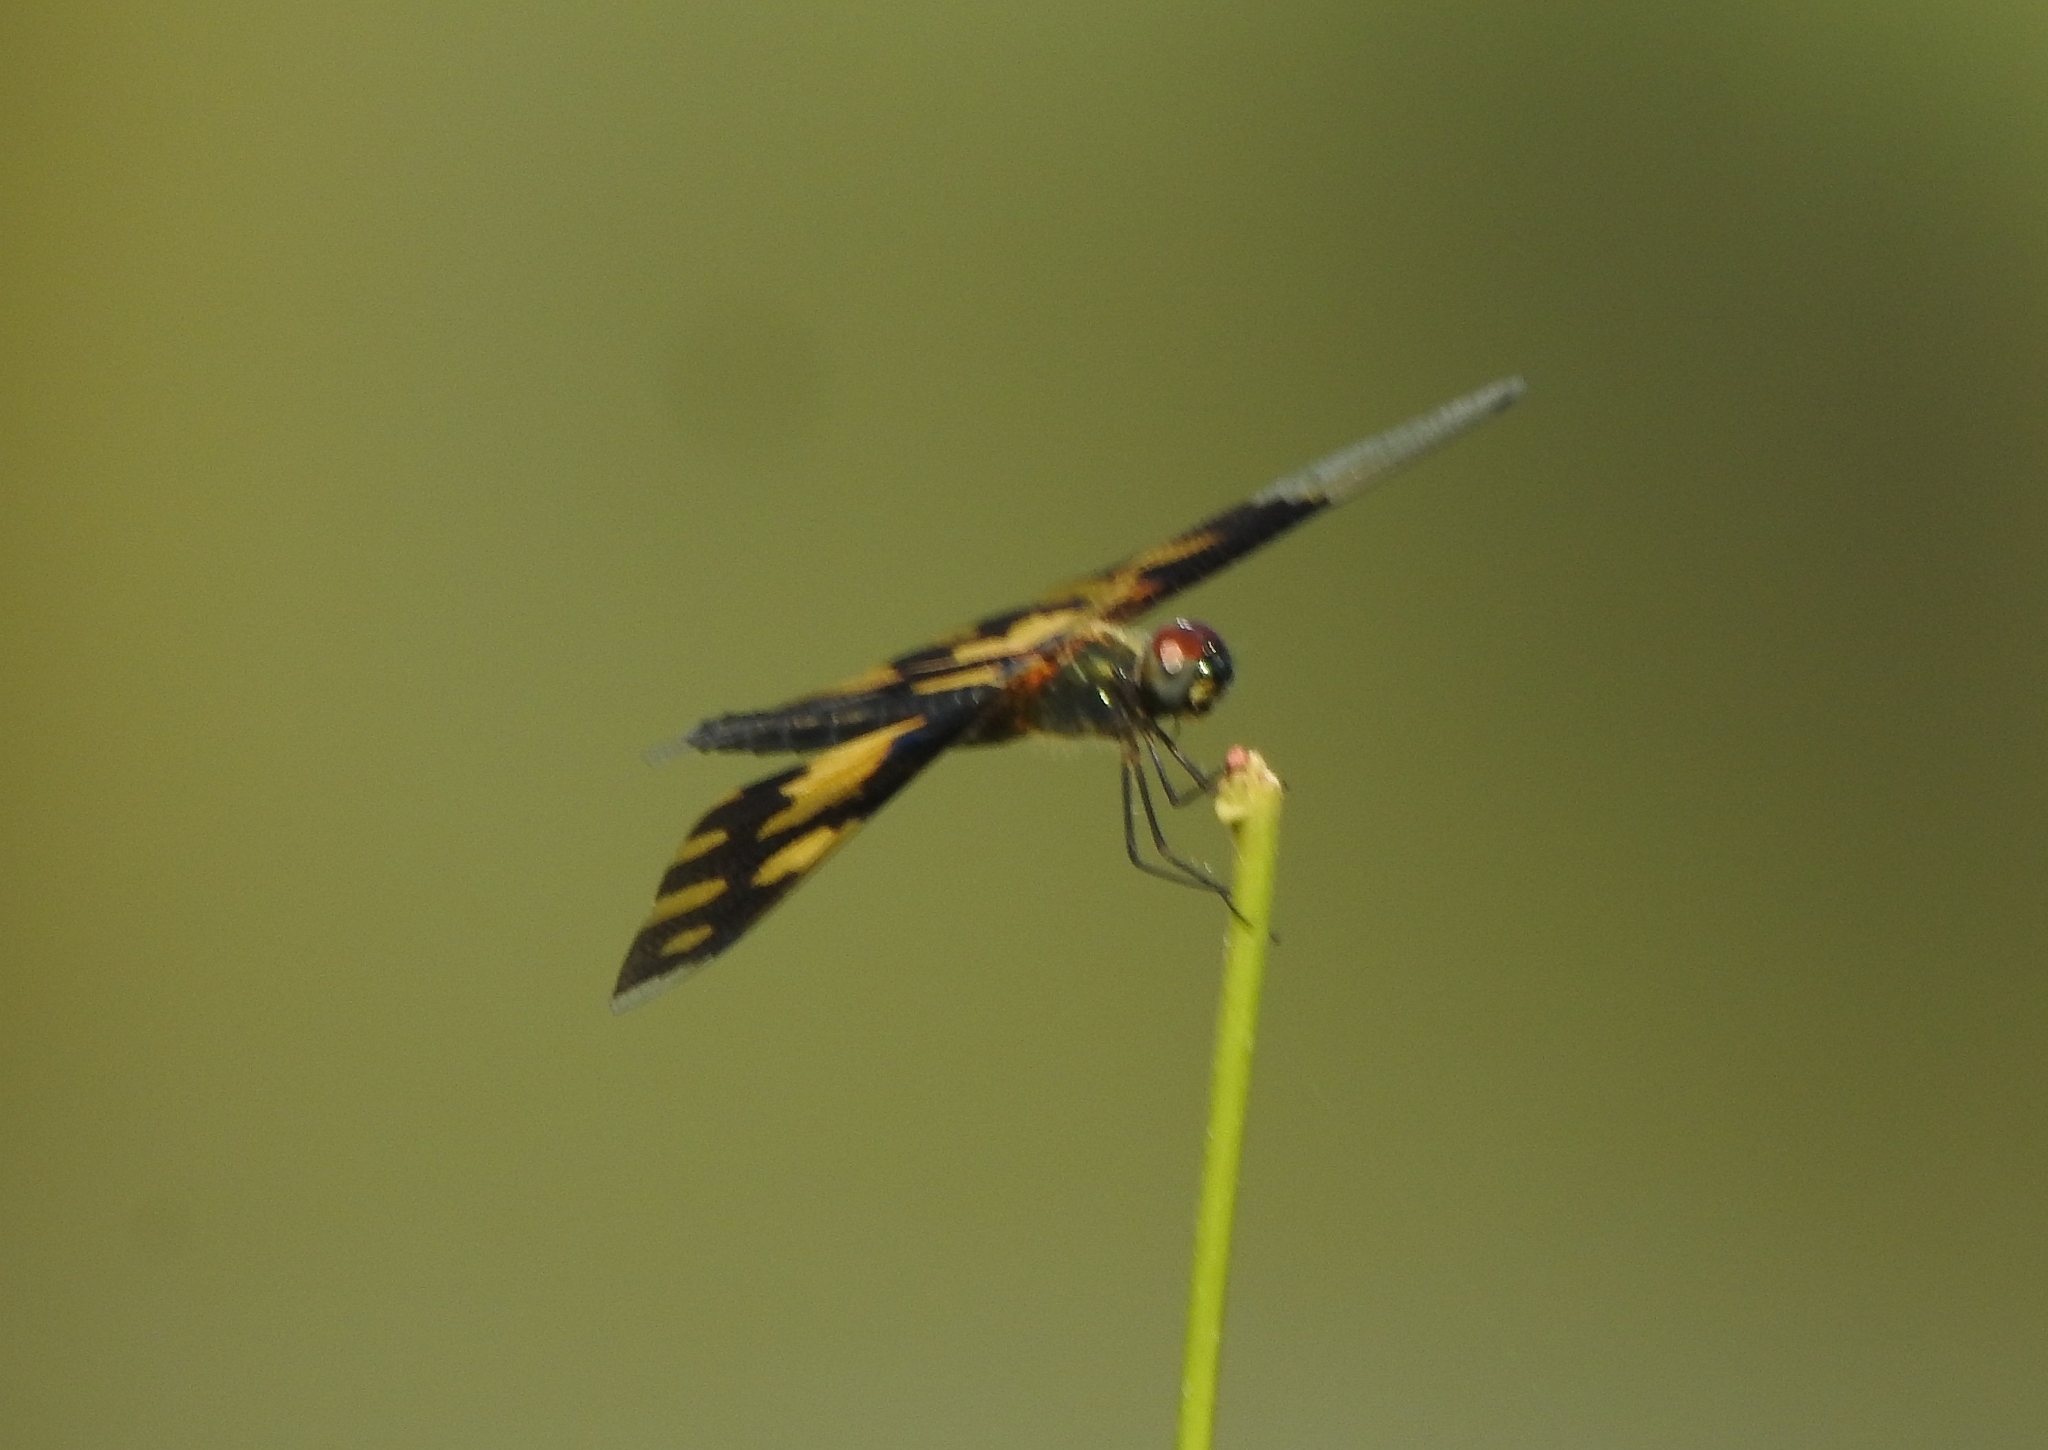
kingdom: Animalia
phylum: Arthropoda
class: Insecta
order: Odonata
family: Libellulidae
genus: Rhyothemis
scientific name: Rhyothemis variegata
